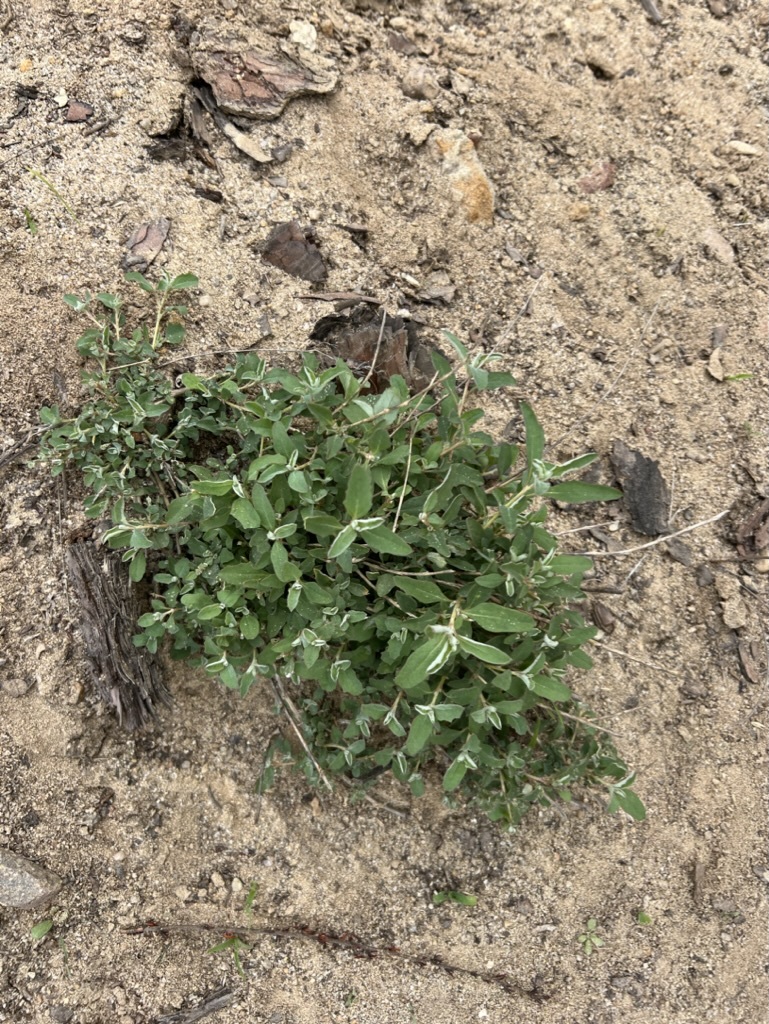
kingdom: Plantae
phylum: Tracheophyta
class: Magnoliopsida
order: Caryophyllales
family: Amaranthaceae
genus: Atriplex
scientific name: Atriplex semibaccata
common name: Australian saltbush
